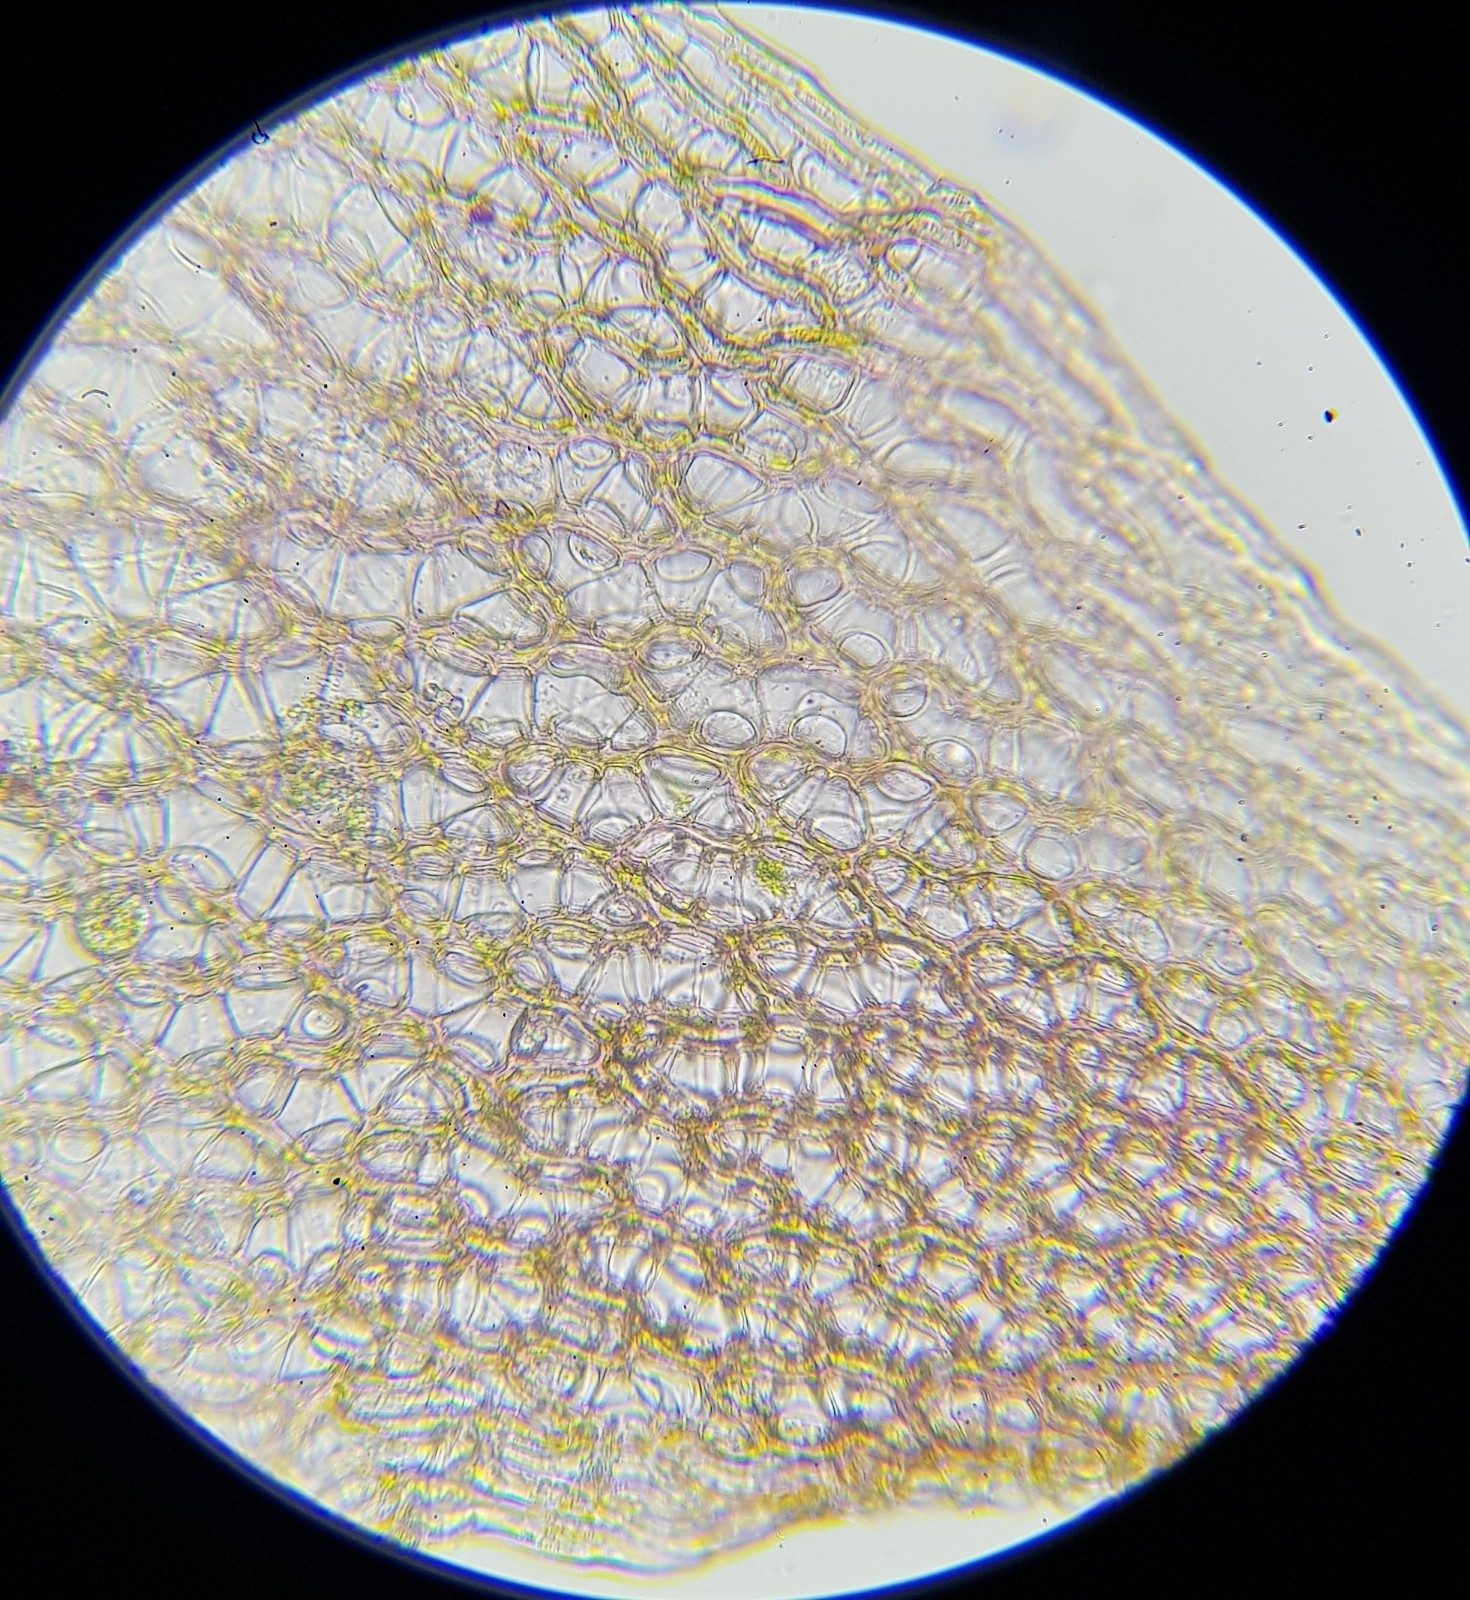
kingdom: Plantae
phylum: Bryophyta
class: Sphagnopsida
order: Sphagnales
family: Sphagnaceae
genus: Sphagnum
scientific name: Sphagnum capillifolium
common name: Small red peat moss
